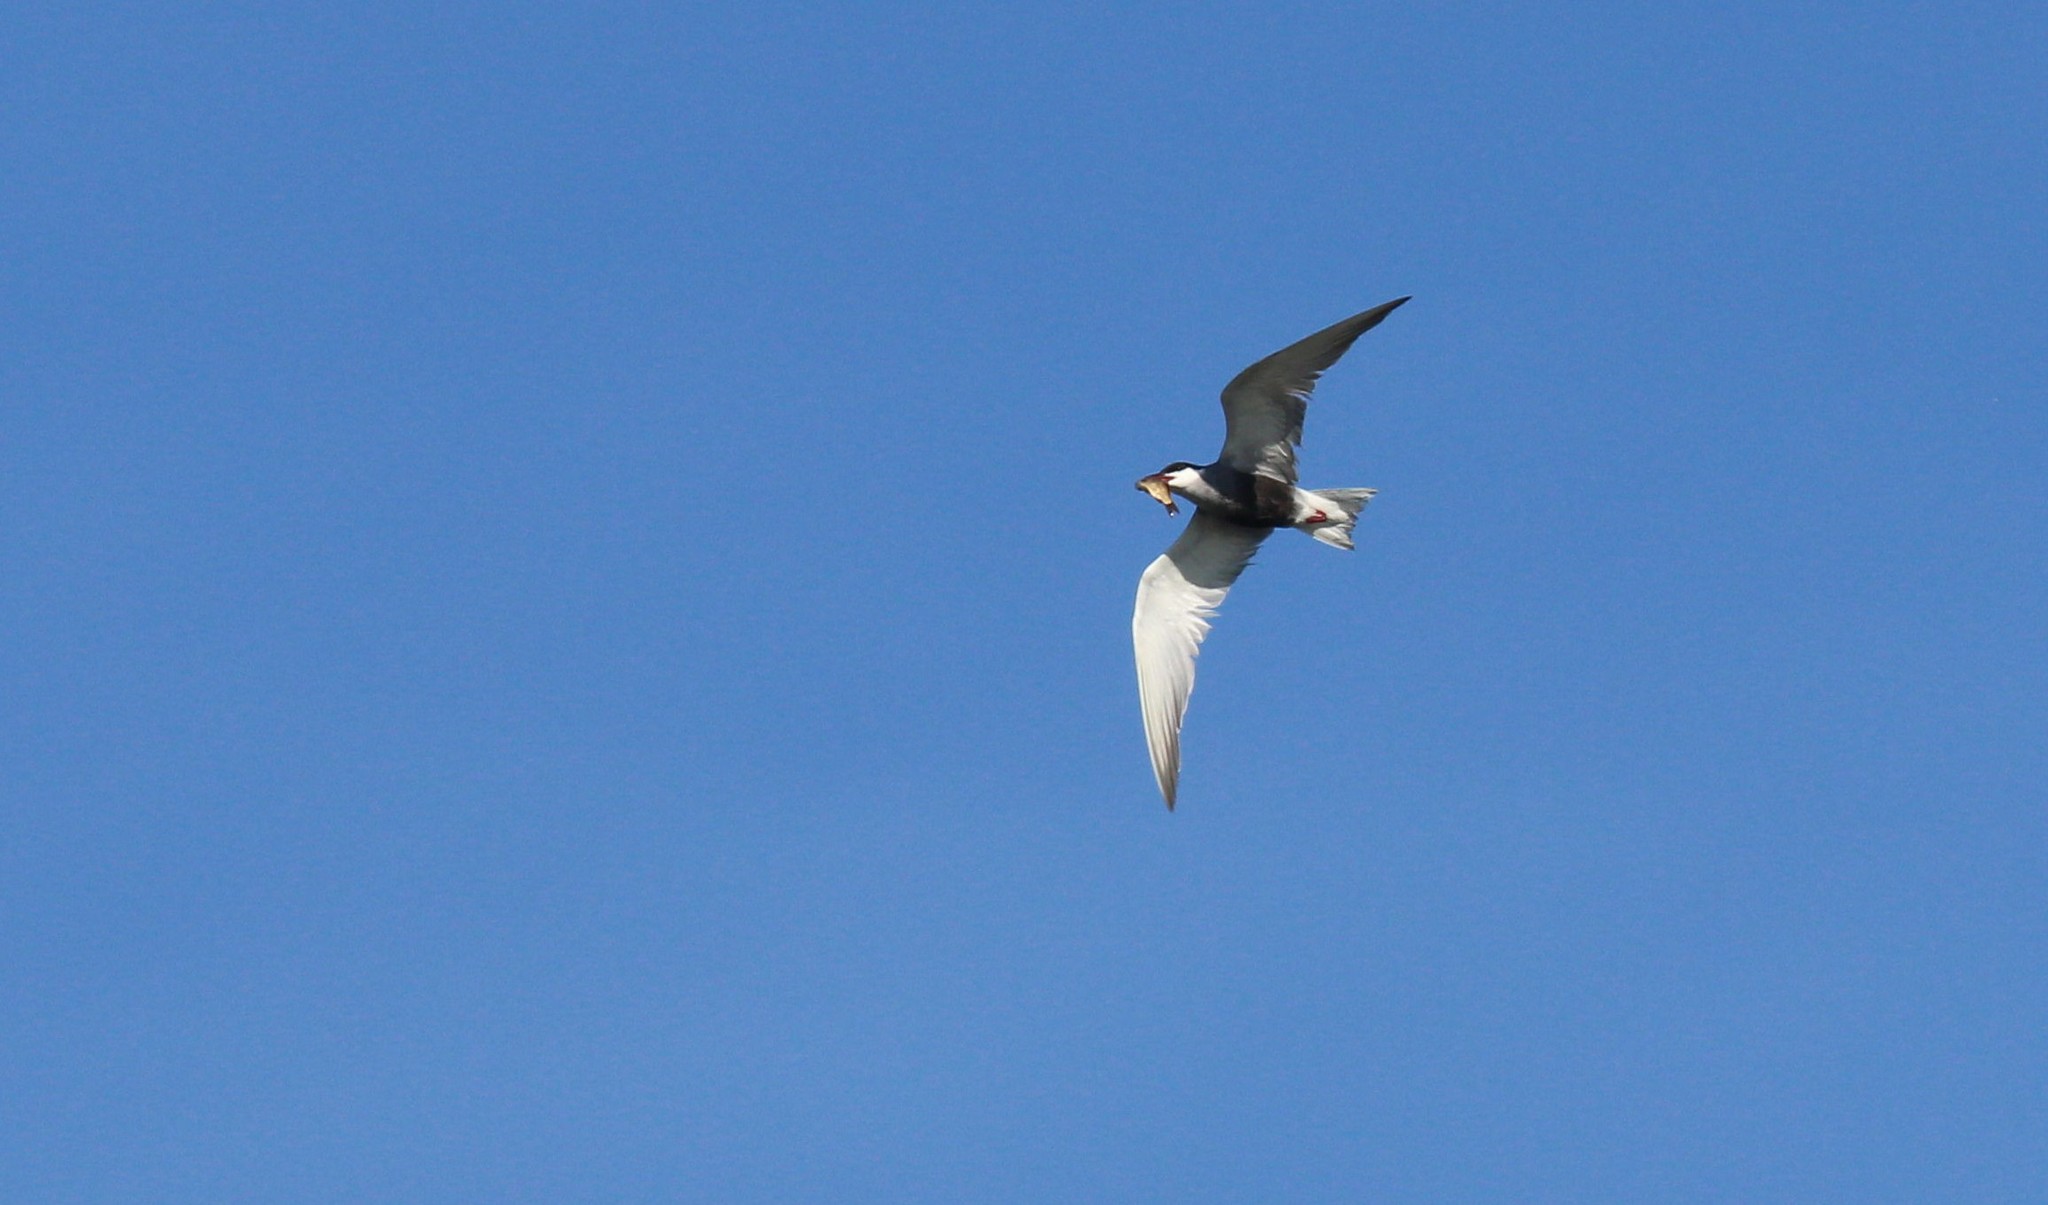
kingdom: Animalia
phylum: Chordata
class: Aves
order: Charadriiformes
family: Laridae
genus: Chlidonias
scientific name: Chlidonias hybrida
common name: Whiskered tern
